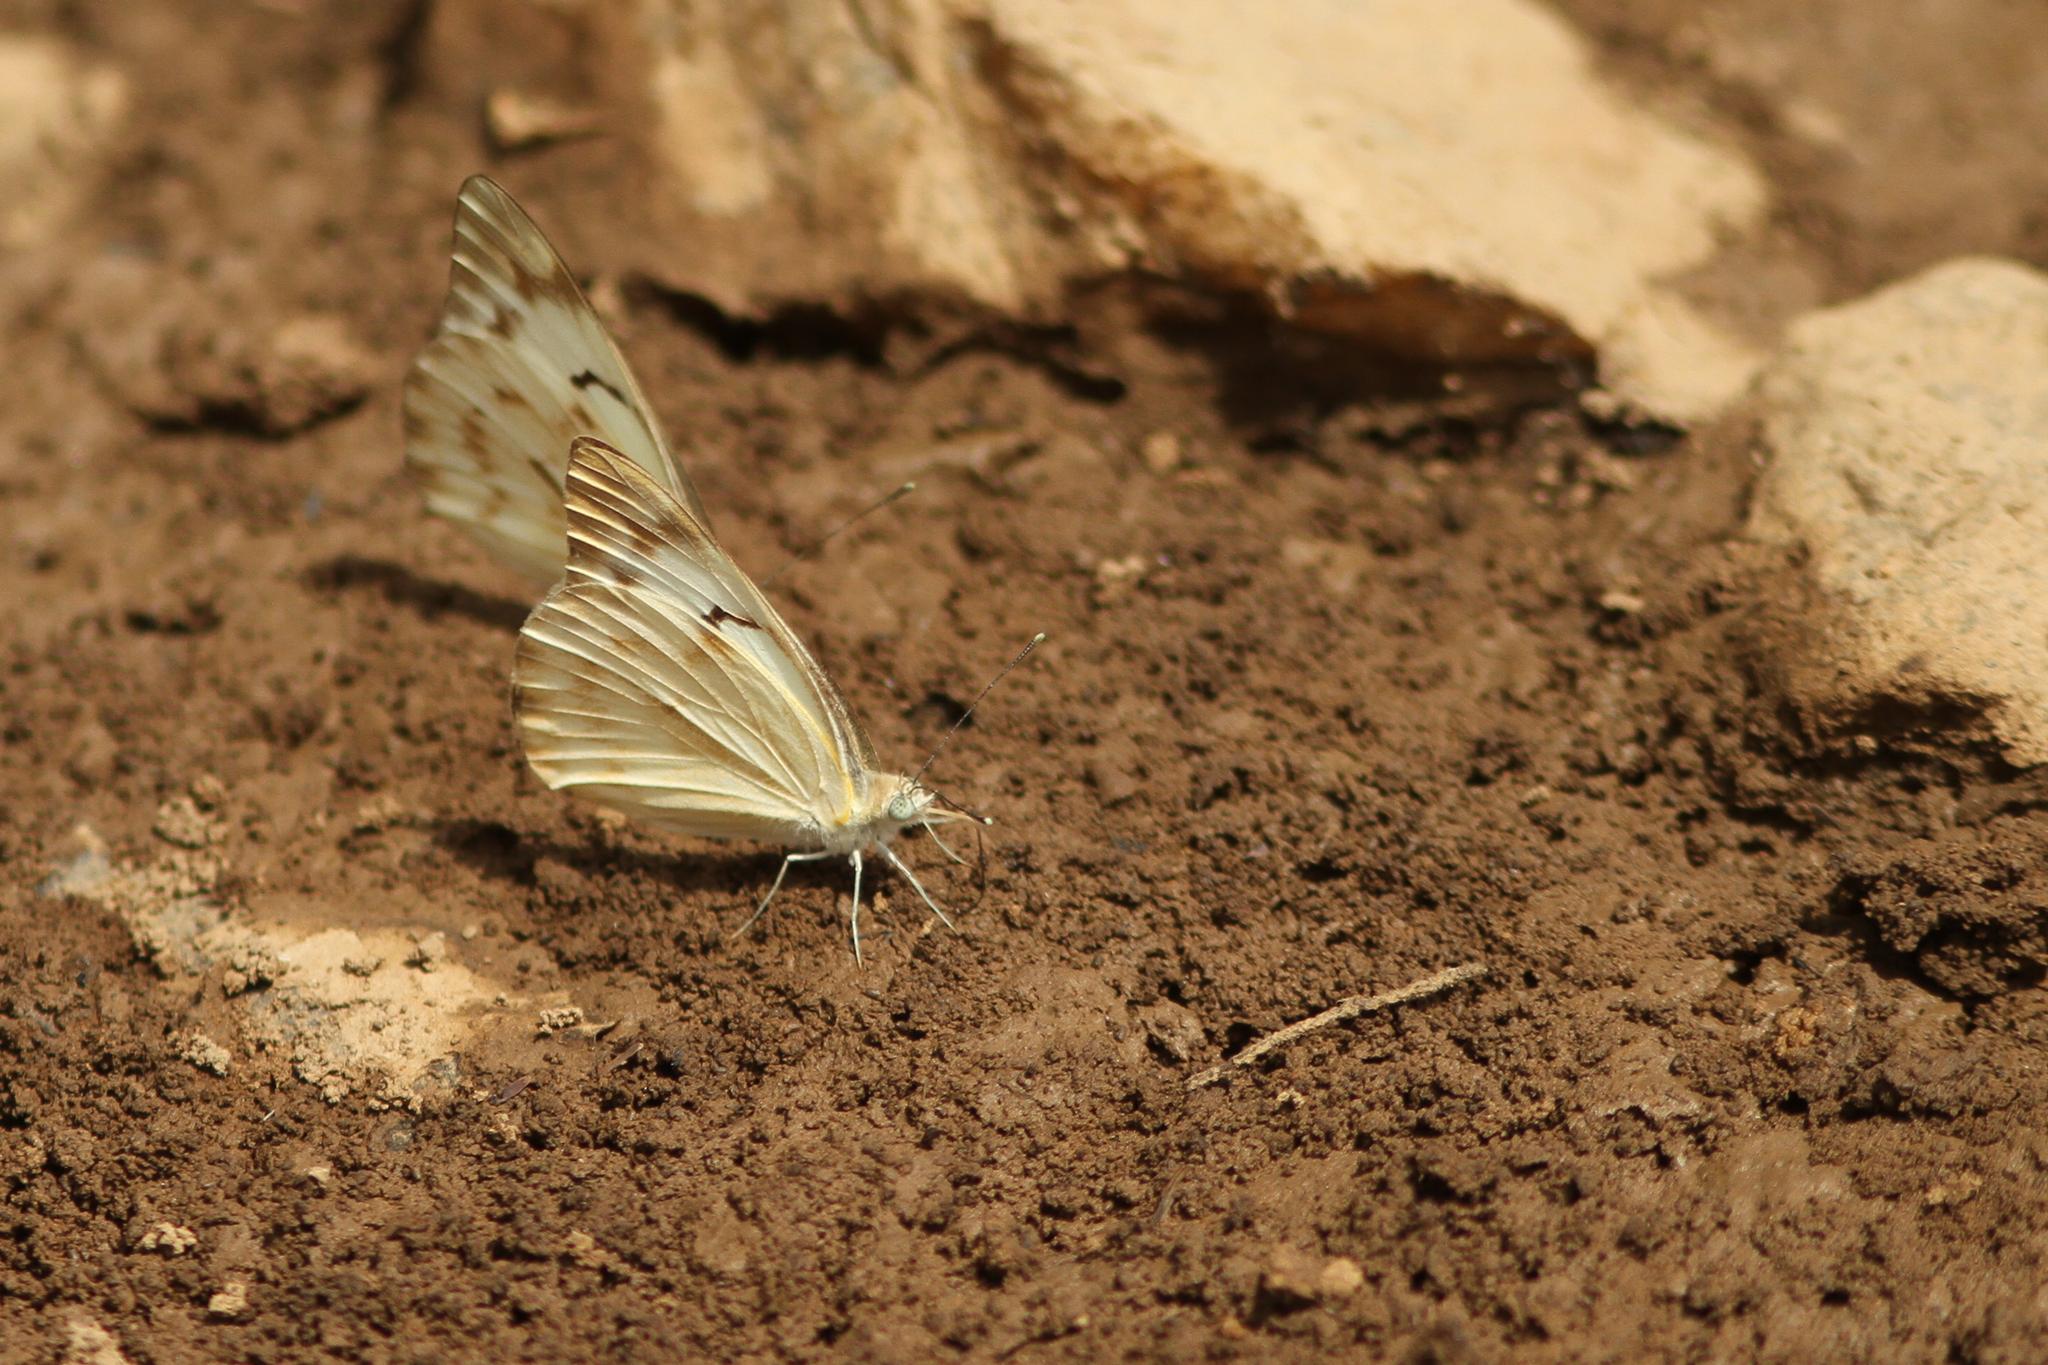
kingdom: Animalia
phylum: Arthropoda
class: Insecta
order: Lepidoptera
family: Pieridae
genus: Belenois
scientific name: Belenois gidica
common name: Pointed caper white
